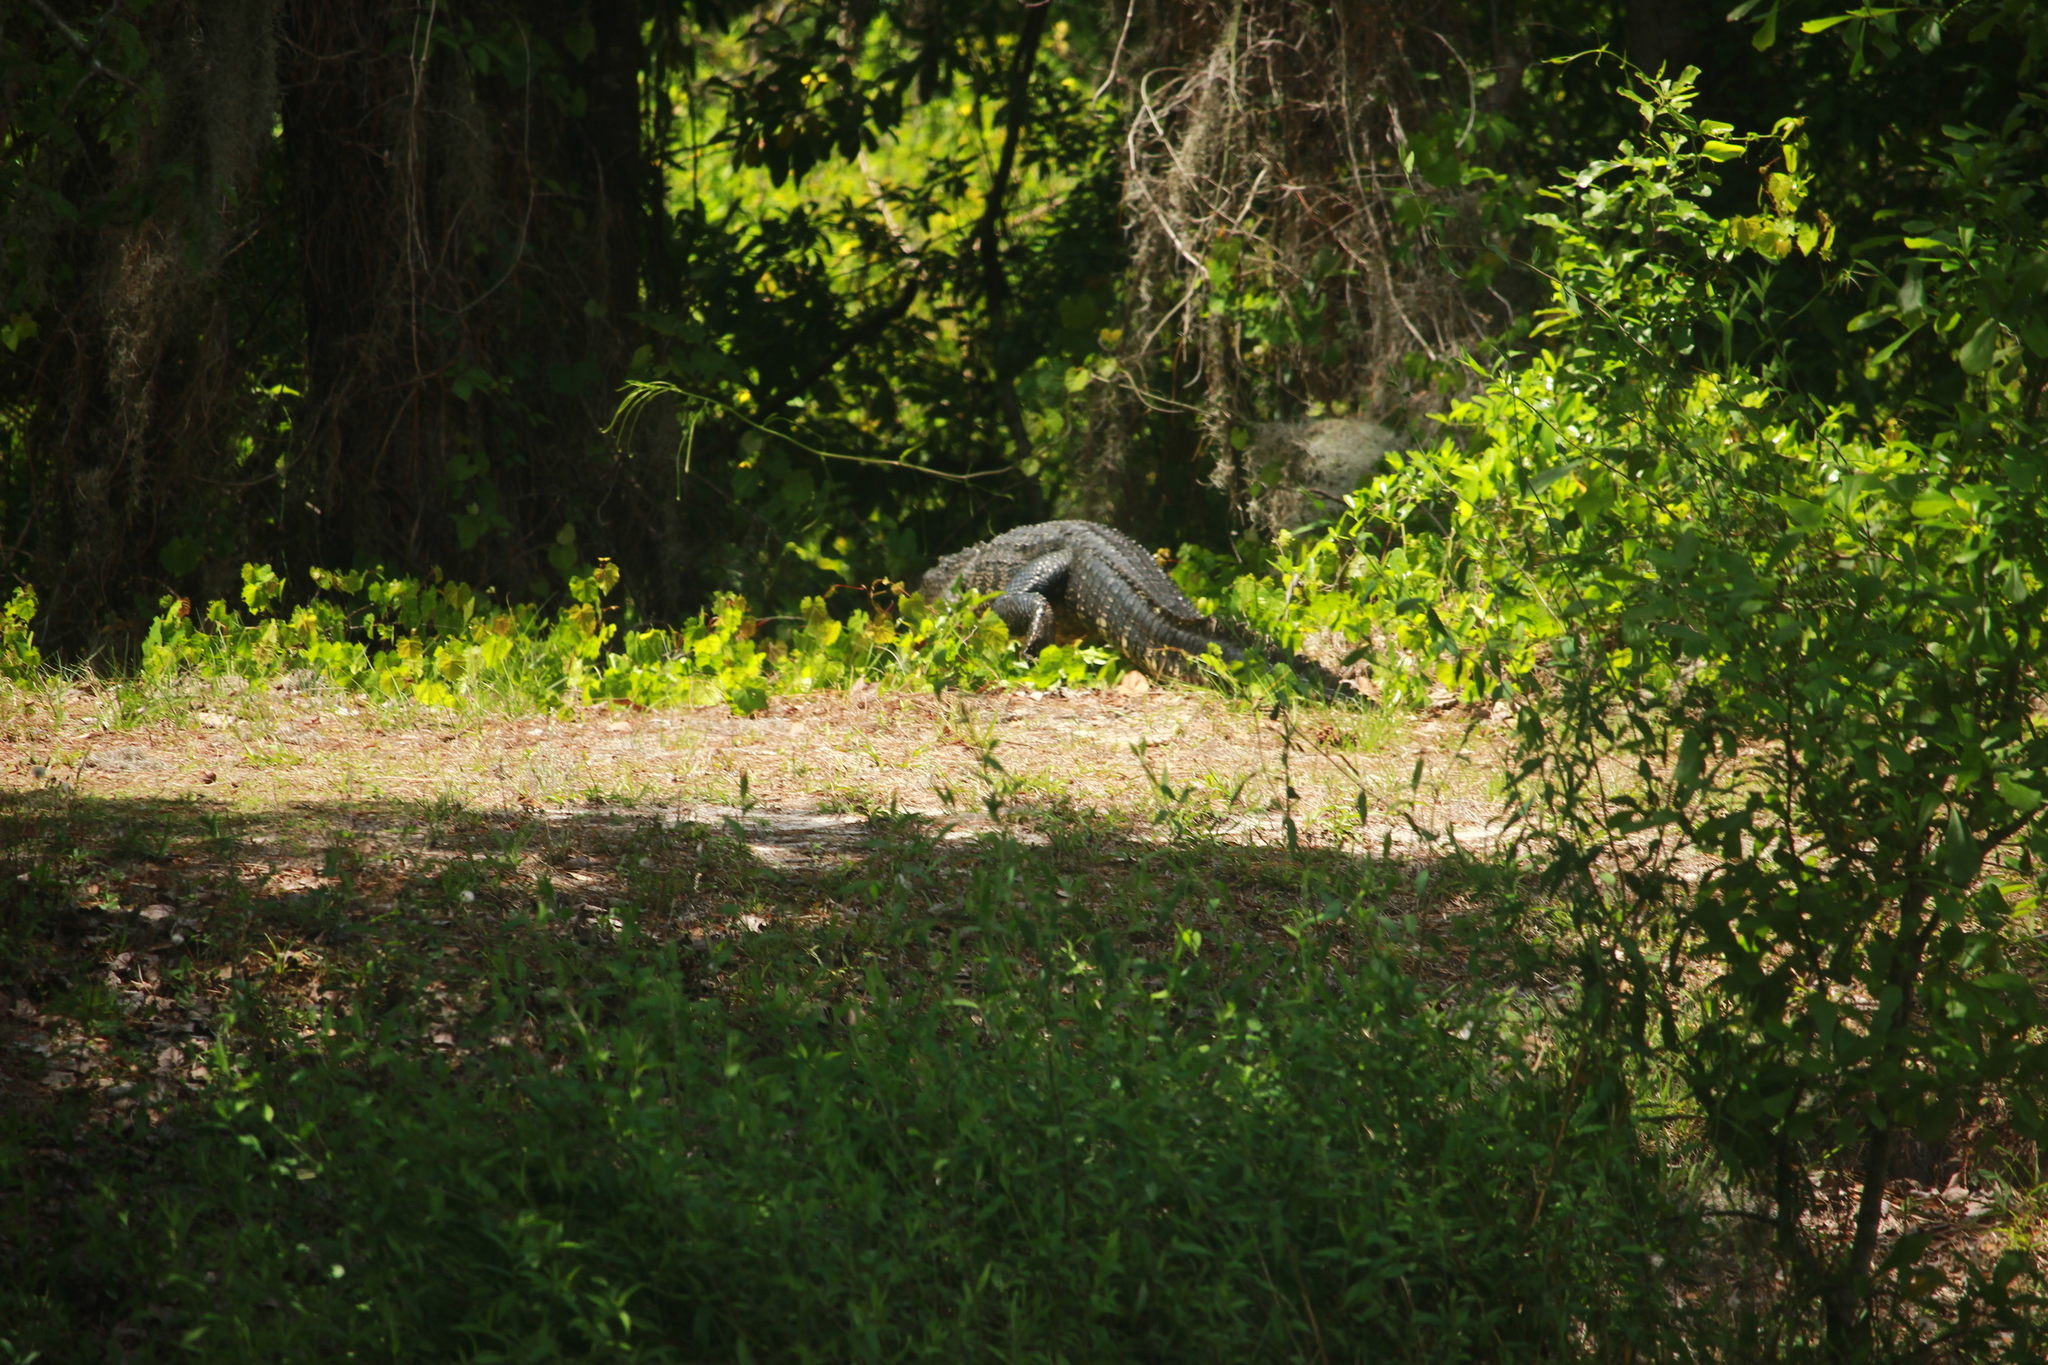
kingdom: Animalia
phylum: Chordata
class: Crocodylia
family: Alligatoridae
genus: Alligator
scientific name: Alligator mississippiensis
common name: American alligator
